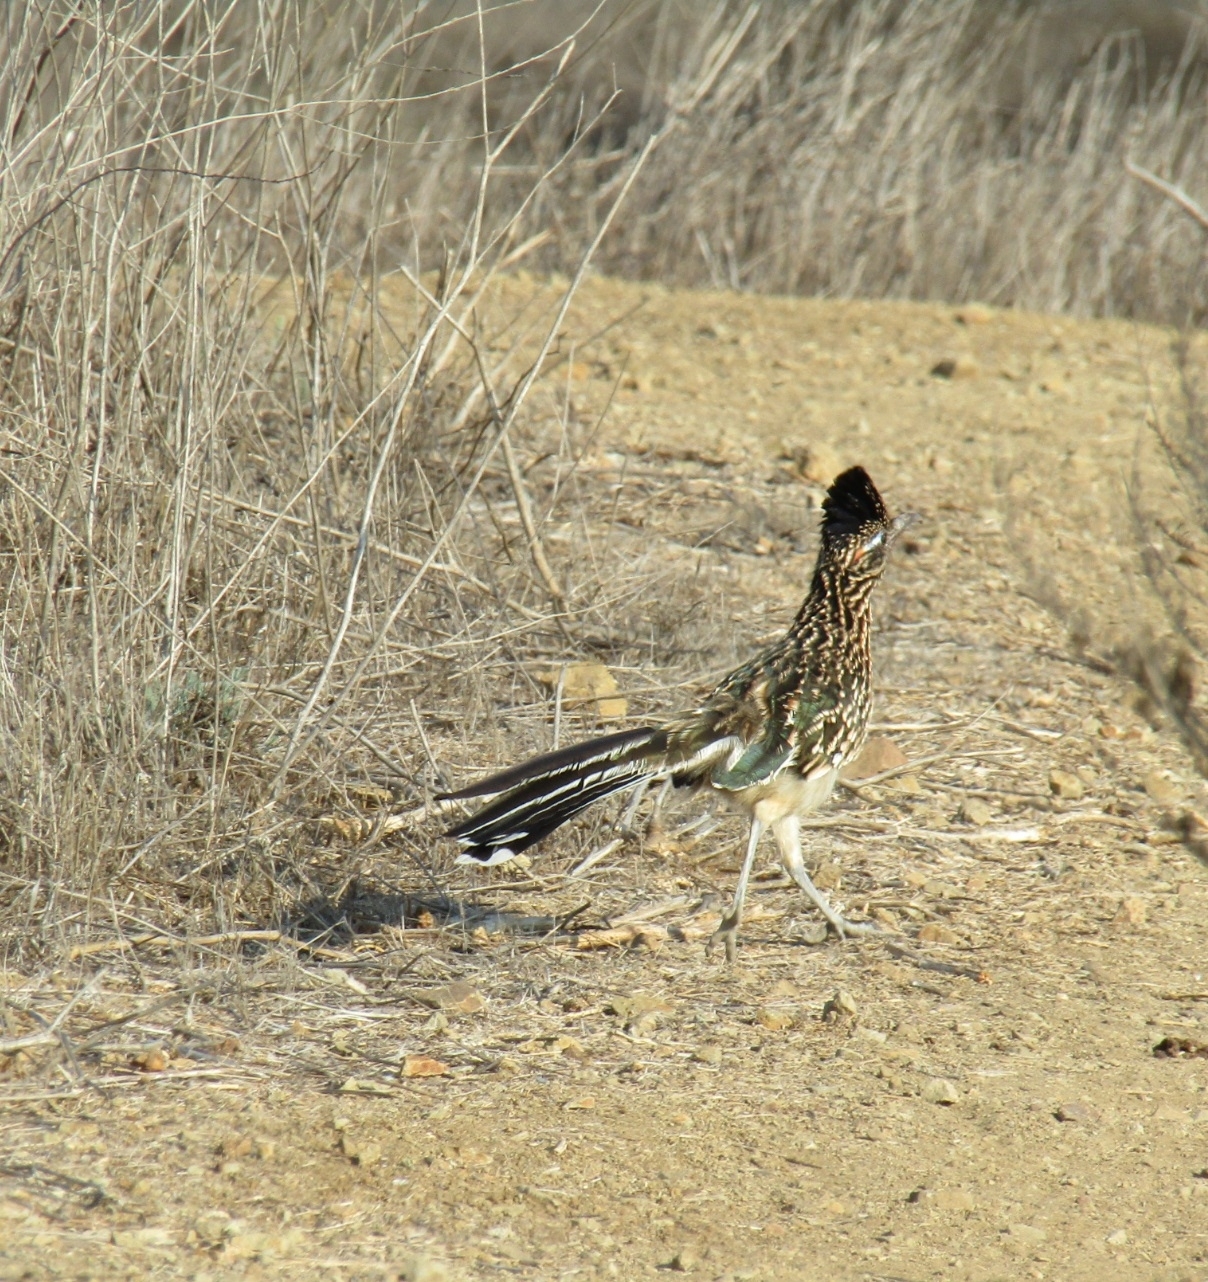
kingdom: Animalia
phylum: Chordata
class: Aves
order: Cuculiformes
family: Cuculidae
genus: Geococcyx
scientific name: Geococcyx californianus
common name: Greater roadrunner
